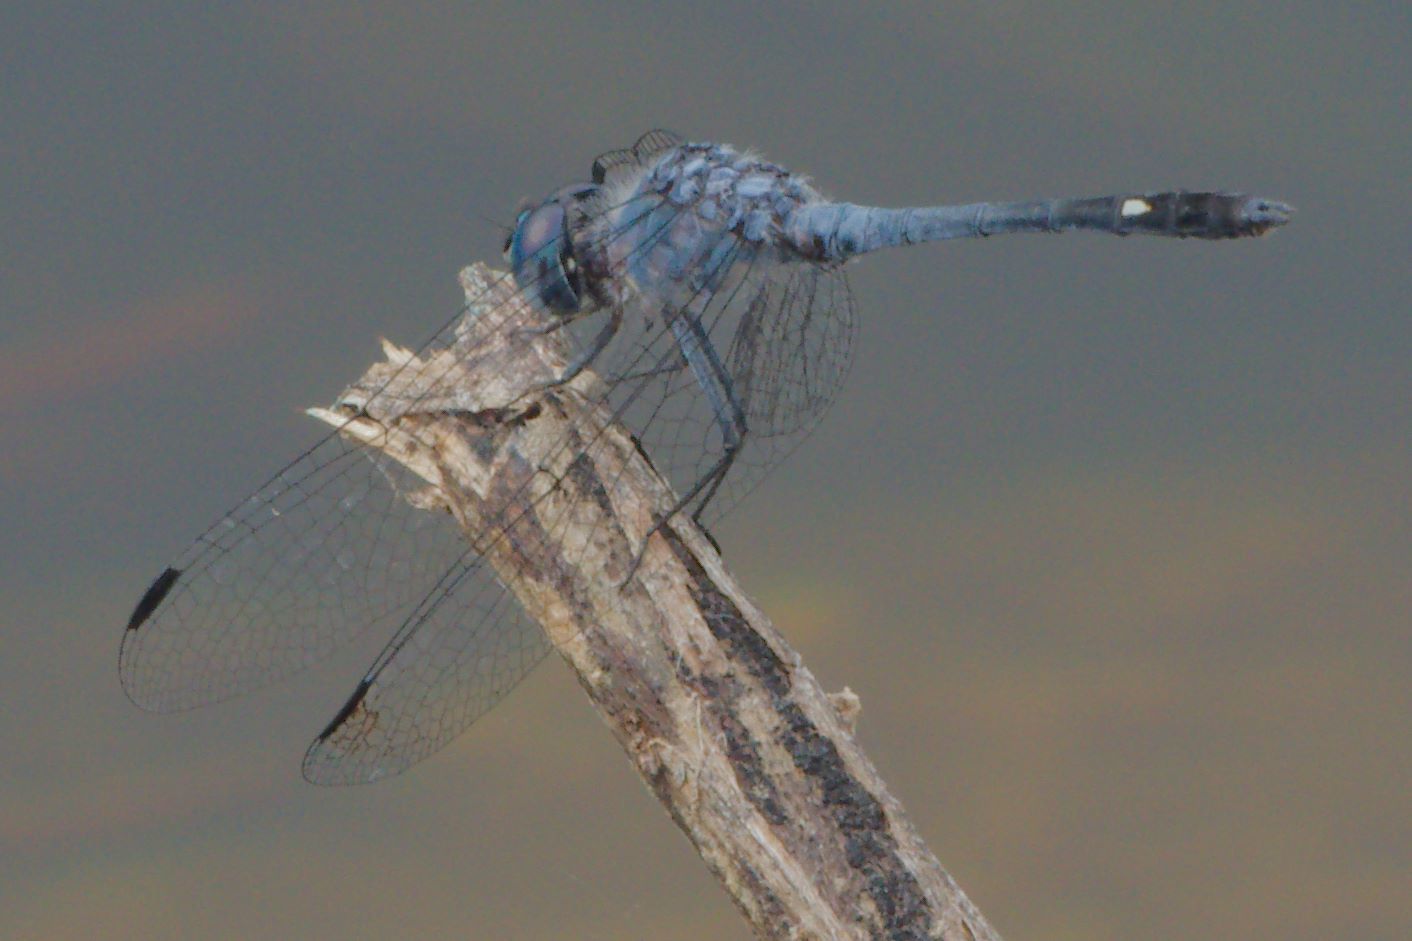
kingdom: Animalia
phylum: Arthropoda
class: Insecta
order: Odonata
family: Libellulidae
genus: Micrathyria
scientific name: Micrathyria aequalis
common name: Spot-tailed dasher
